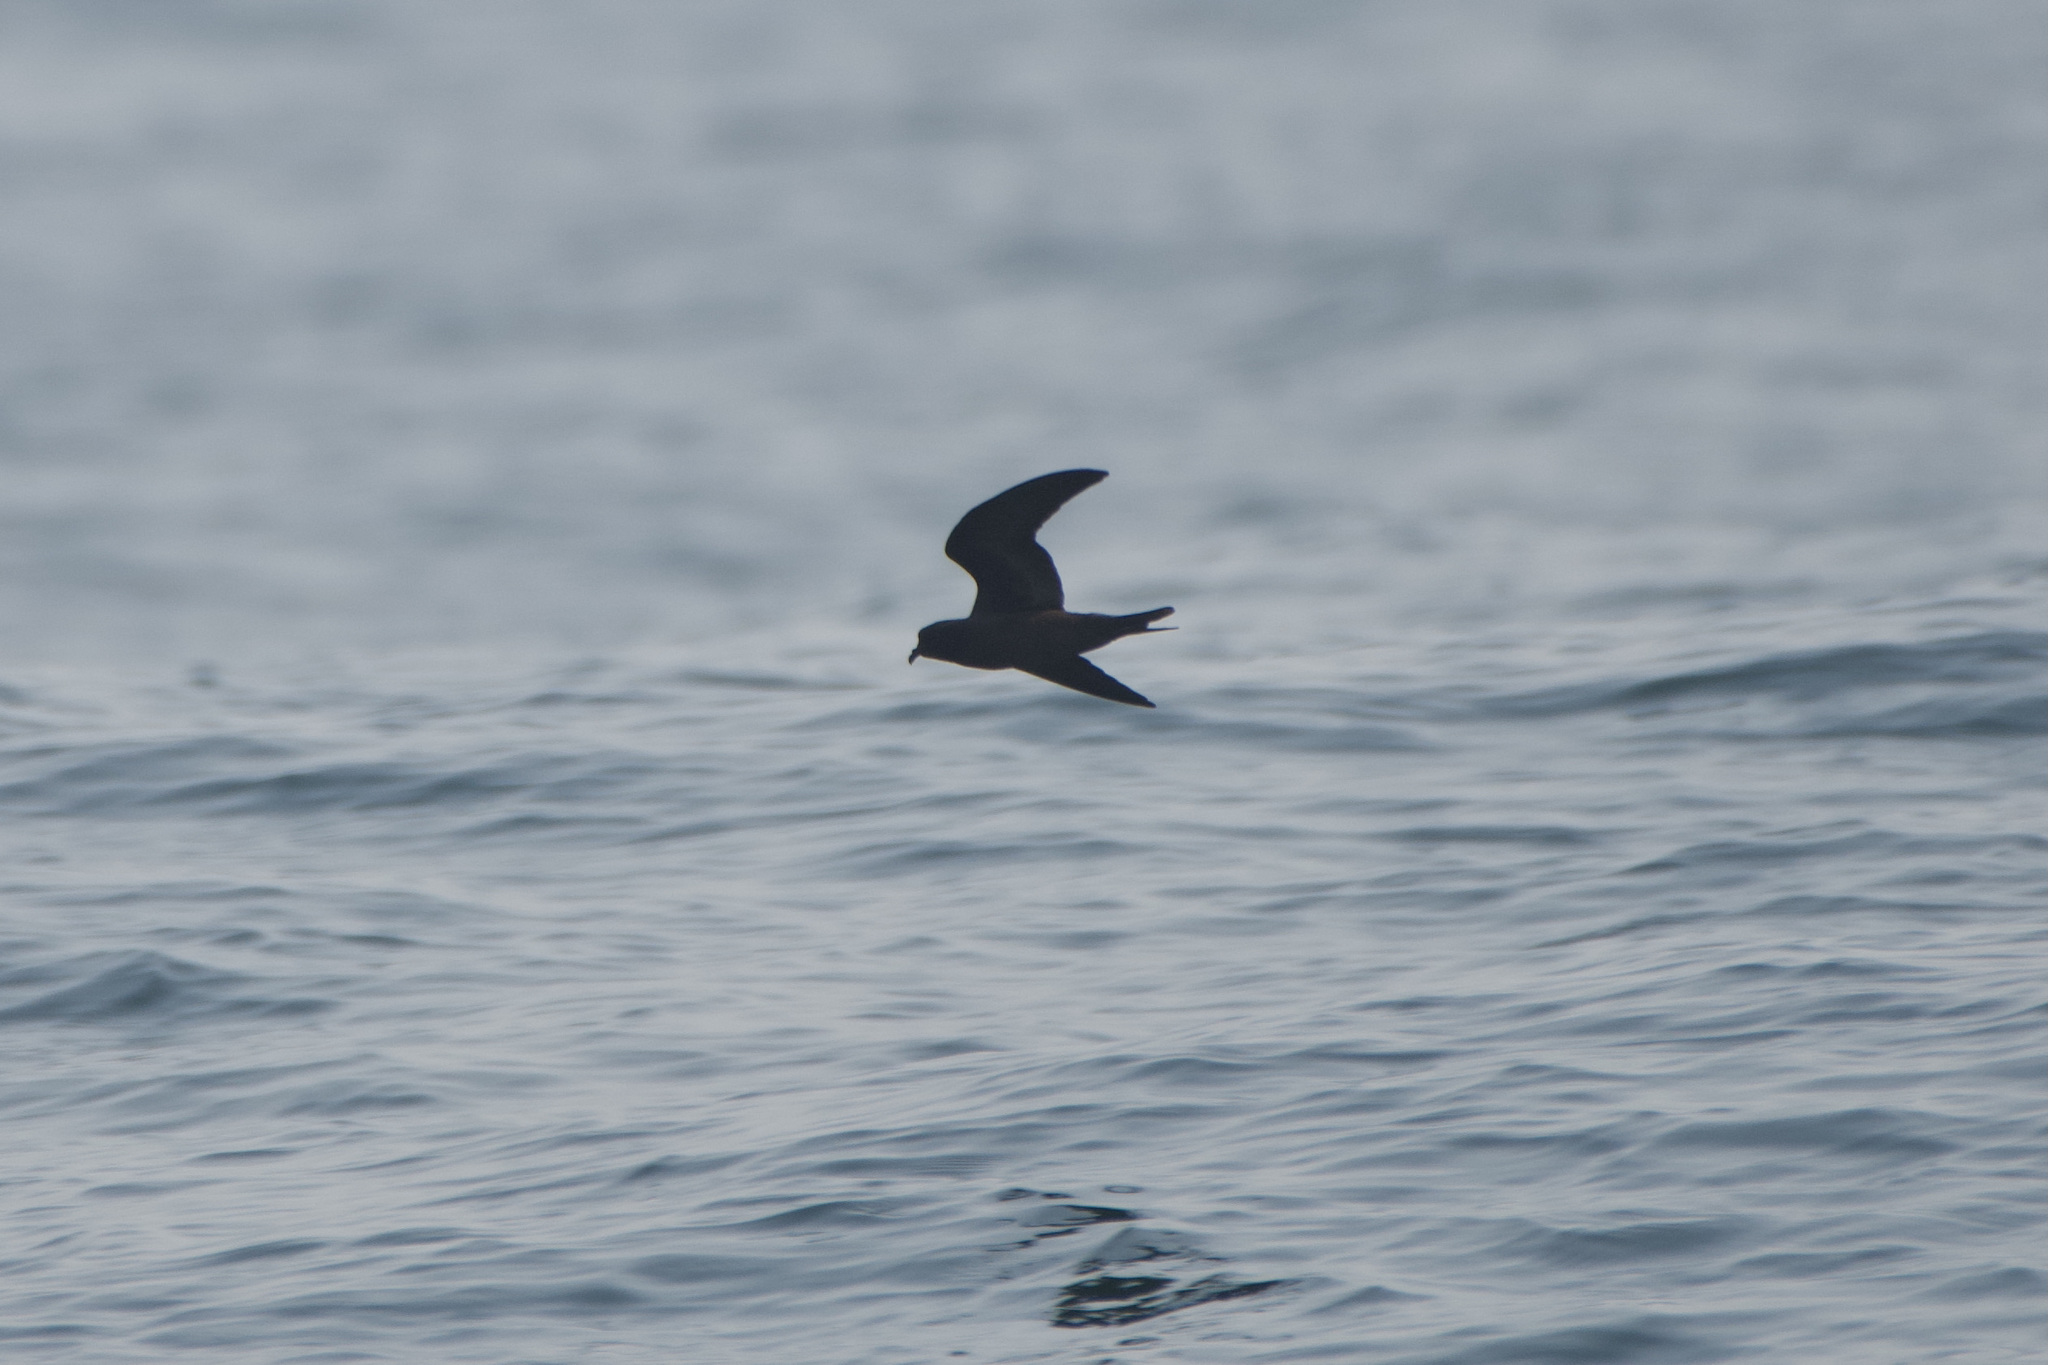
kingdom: Animalia
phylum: Chordata
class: Aves
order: Procellariiformes
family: Hydrobatidae
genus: Hydrobates
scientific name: Hydrobates melania
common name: Black storm petrel
